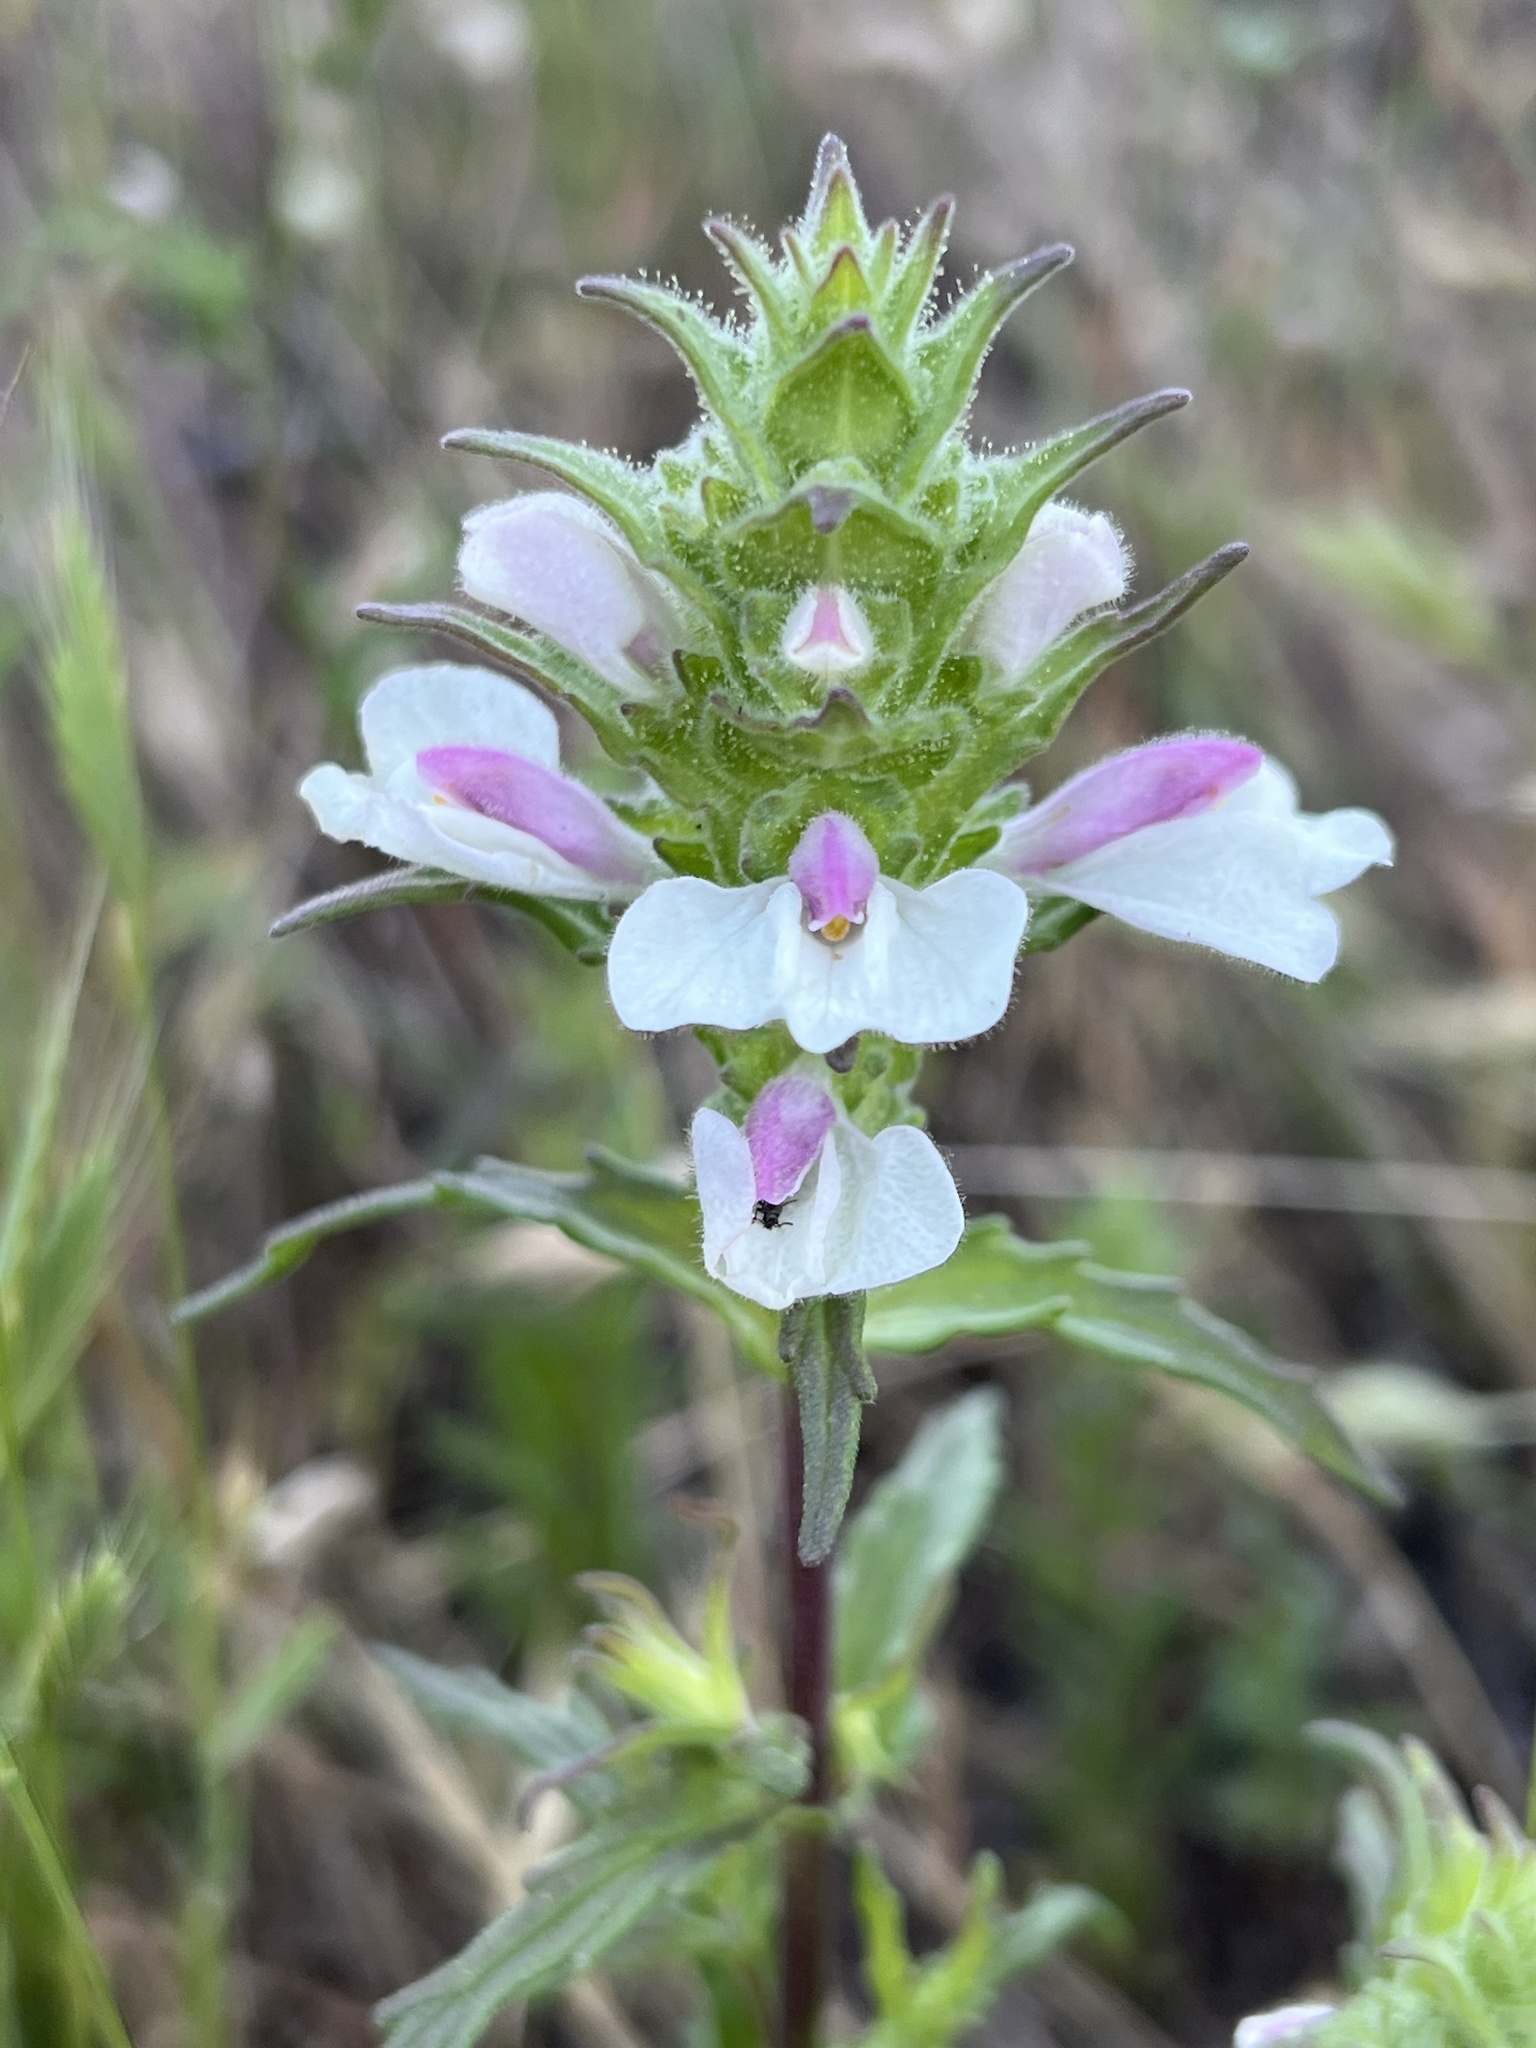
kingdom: Plantae
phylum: Tracheophyta
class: Magnoliopsida
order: Lamiales
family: Orobanchaceae
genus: Bellardia
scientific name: Bellardia trixago
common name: Mediterranean lineseed
